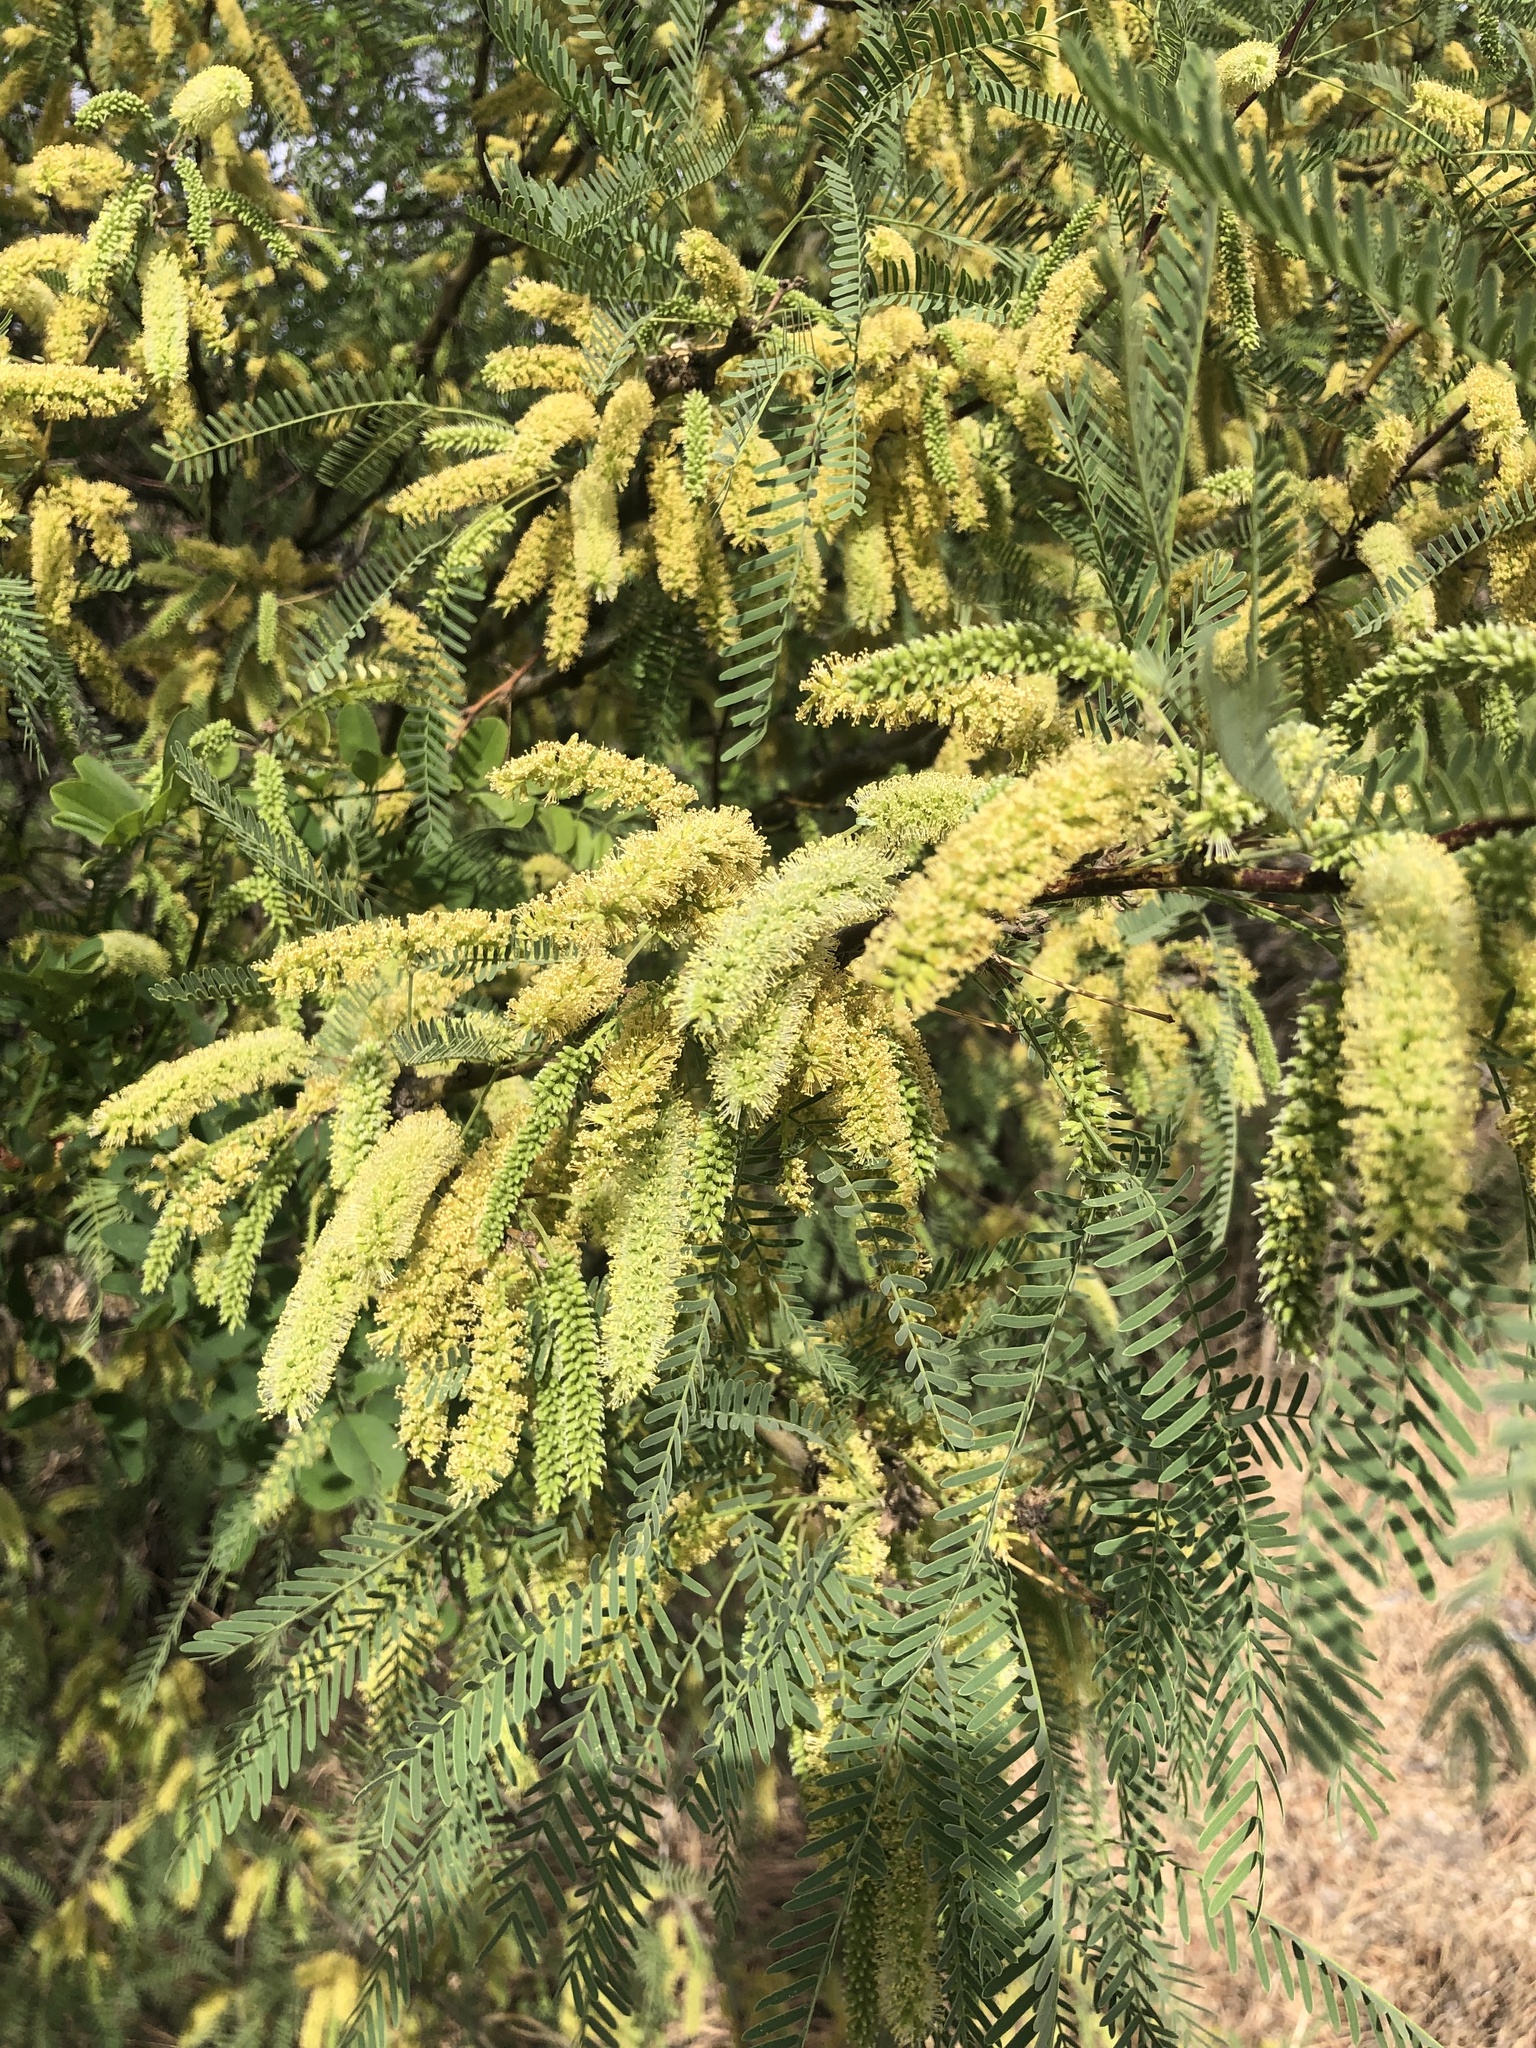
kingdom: Plantae
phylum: Tracheophyta
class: Magnoliopsida
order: Fabales
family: Fabaceae
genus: Prosopis
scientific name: Prosopis glandulosa
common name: Honey mesquite
